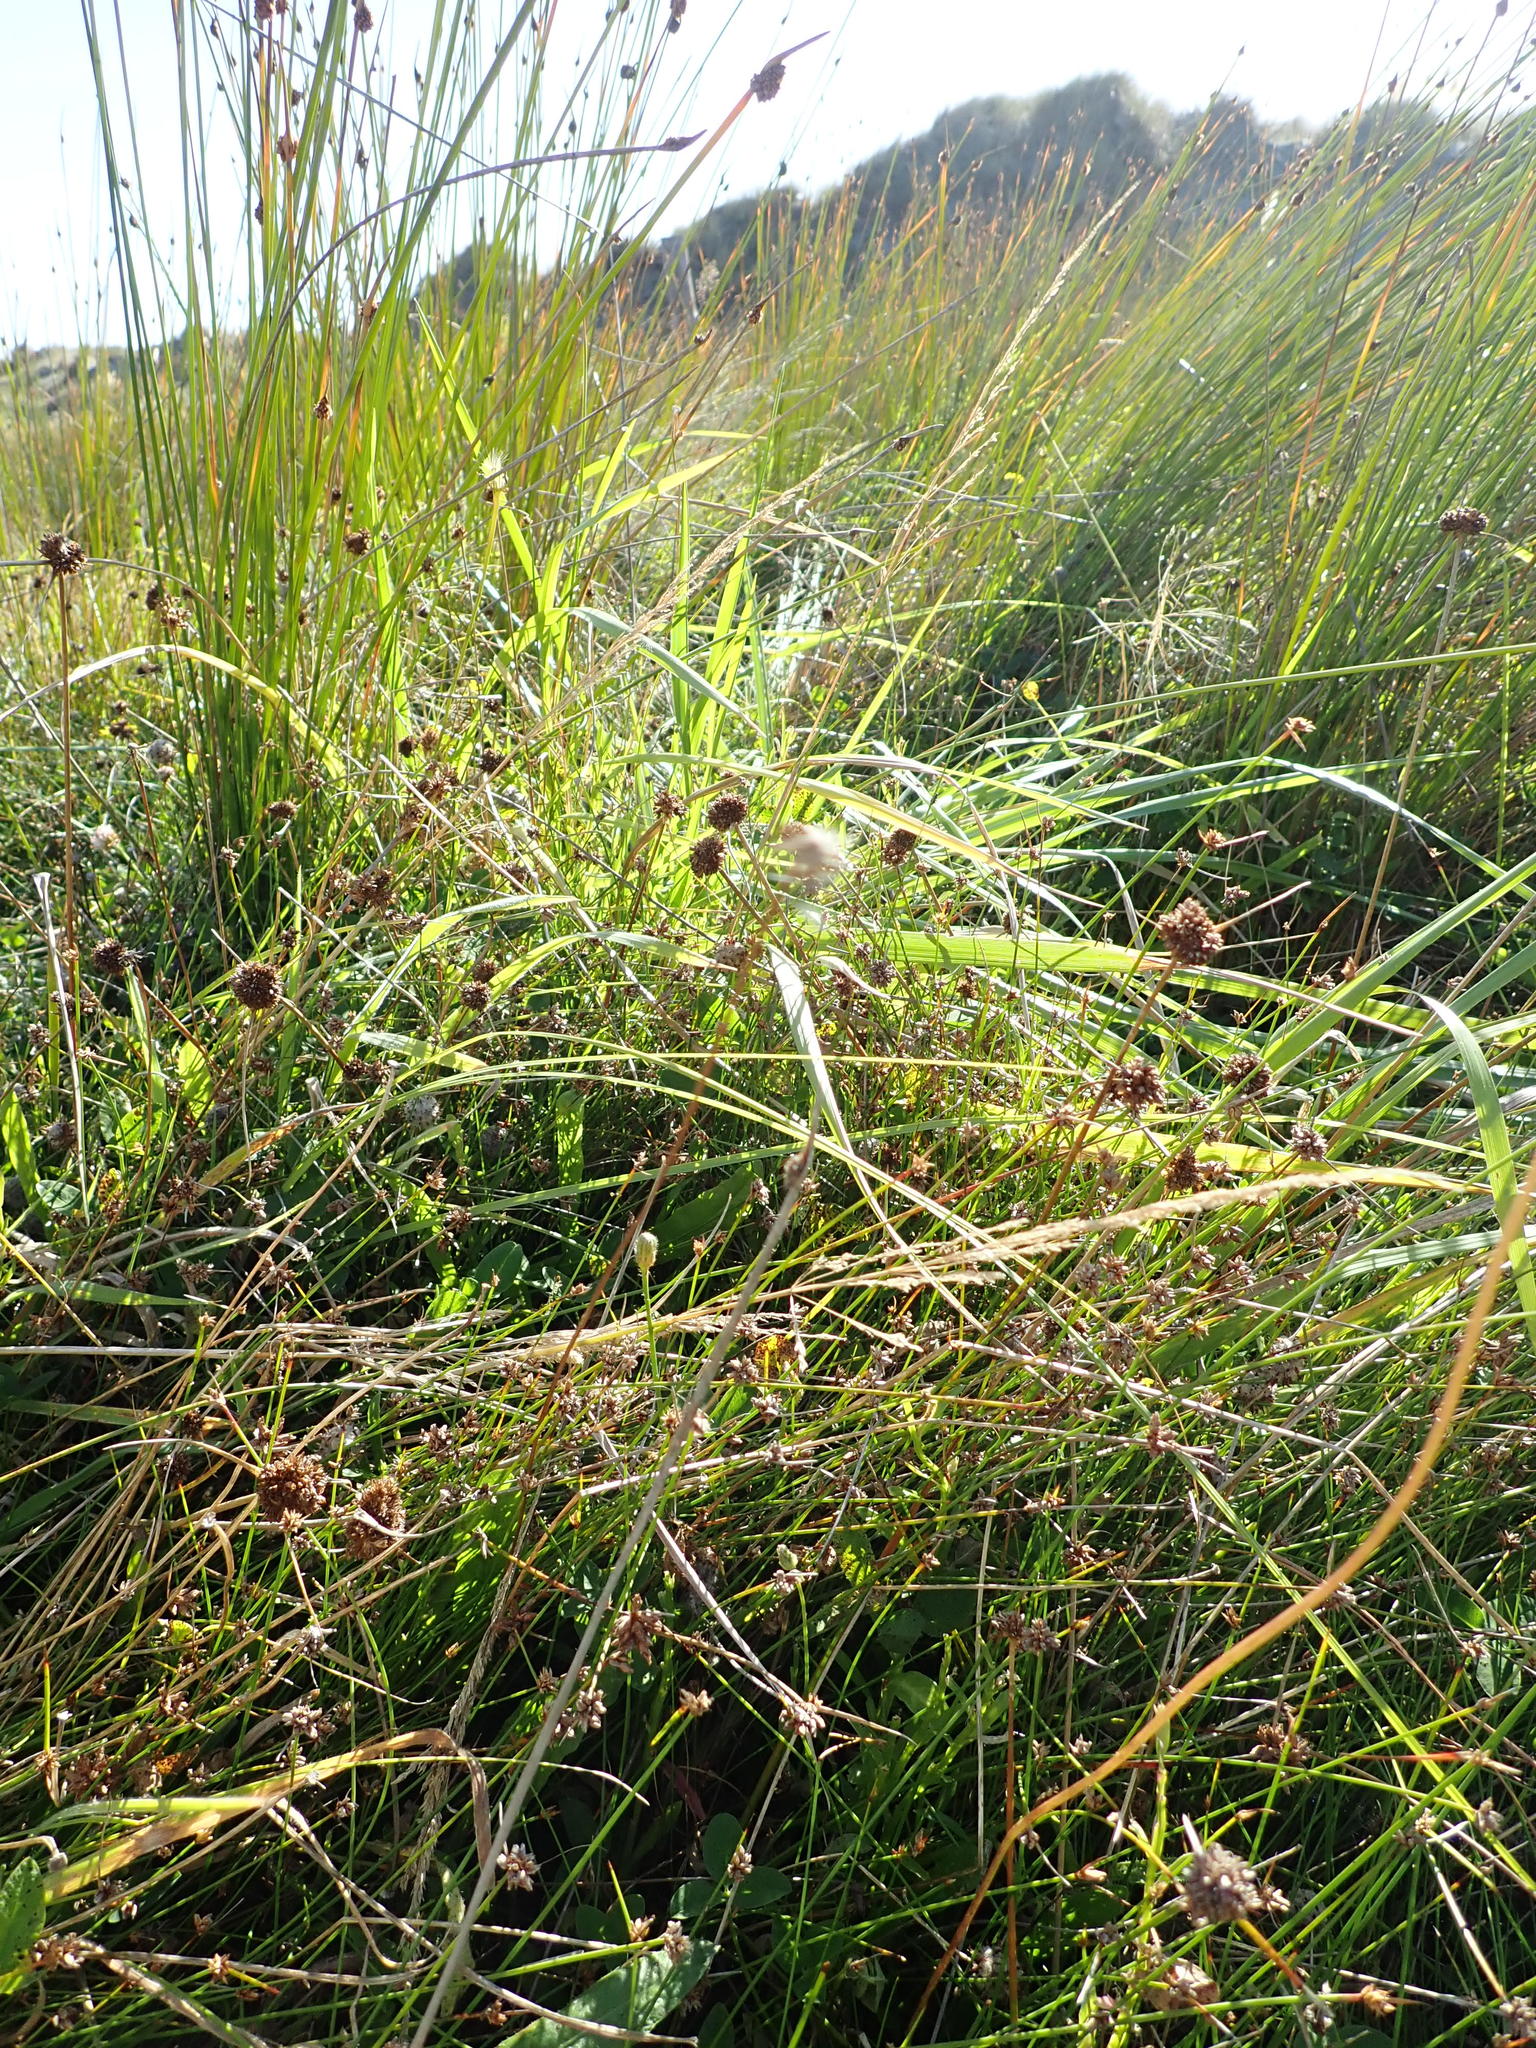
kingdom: Plantae
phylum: Tracheophyta
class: Liliopsida
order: Poales
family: Juncaceae
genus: Juncus
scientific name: Juncus caespiticius
